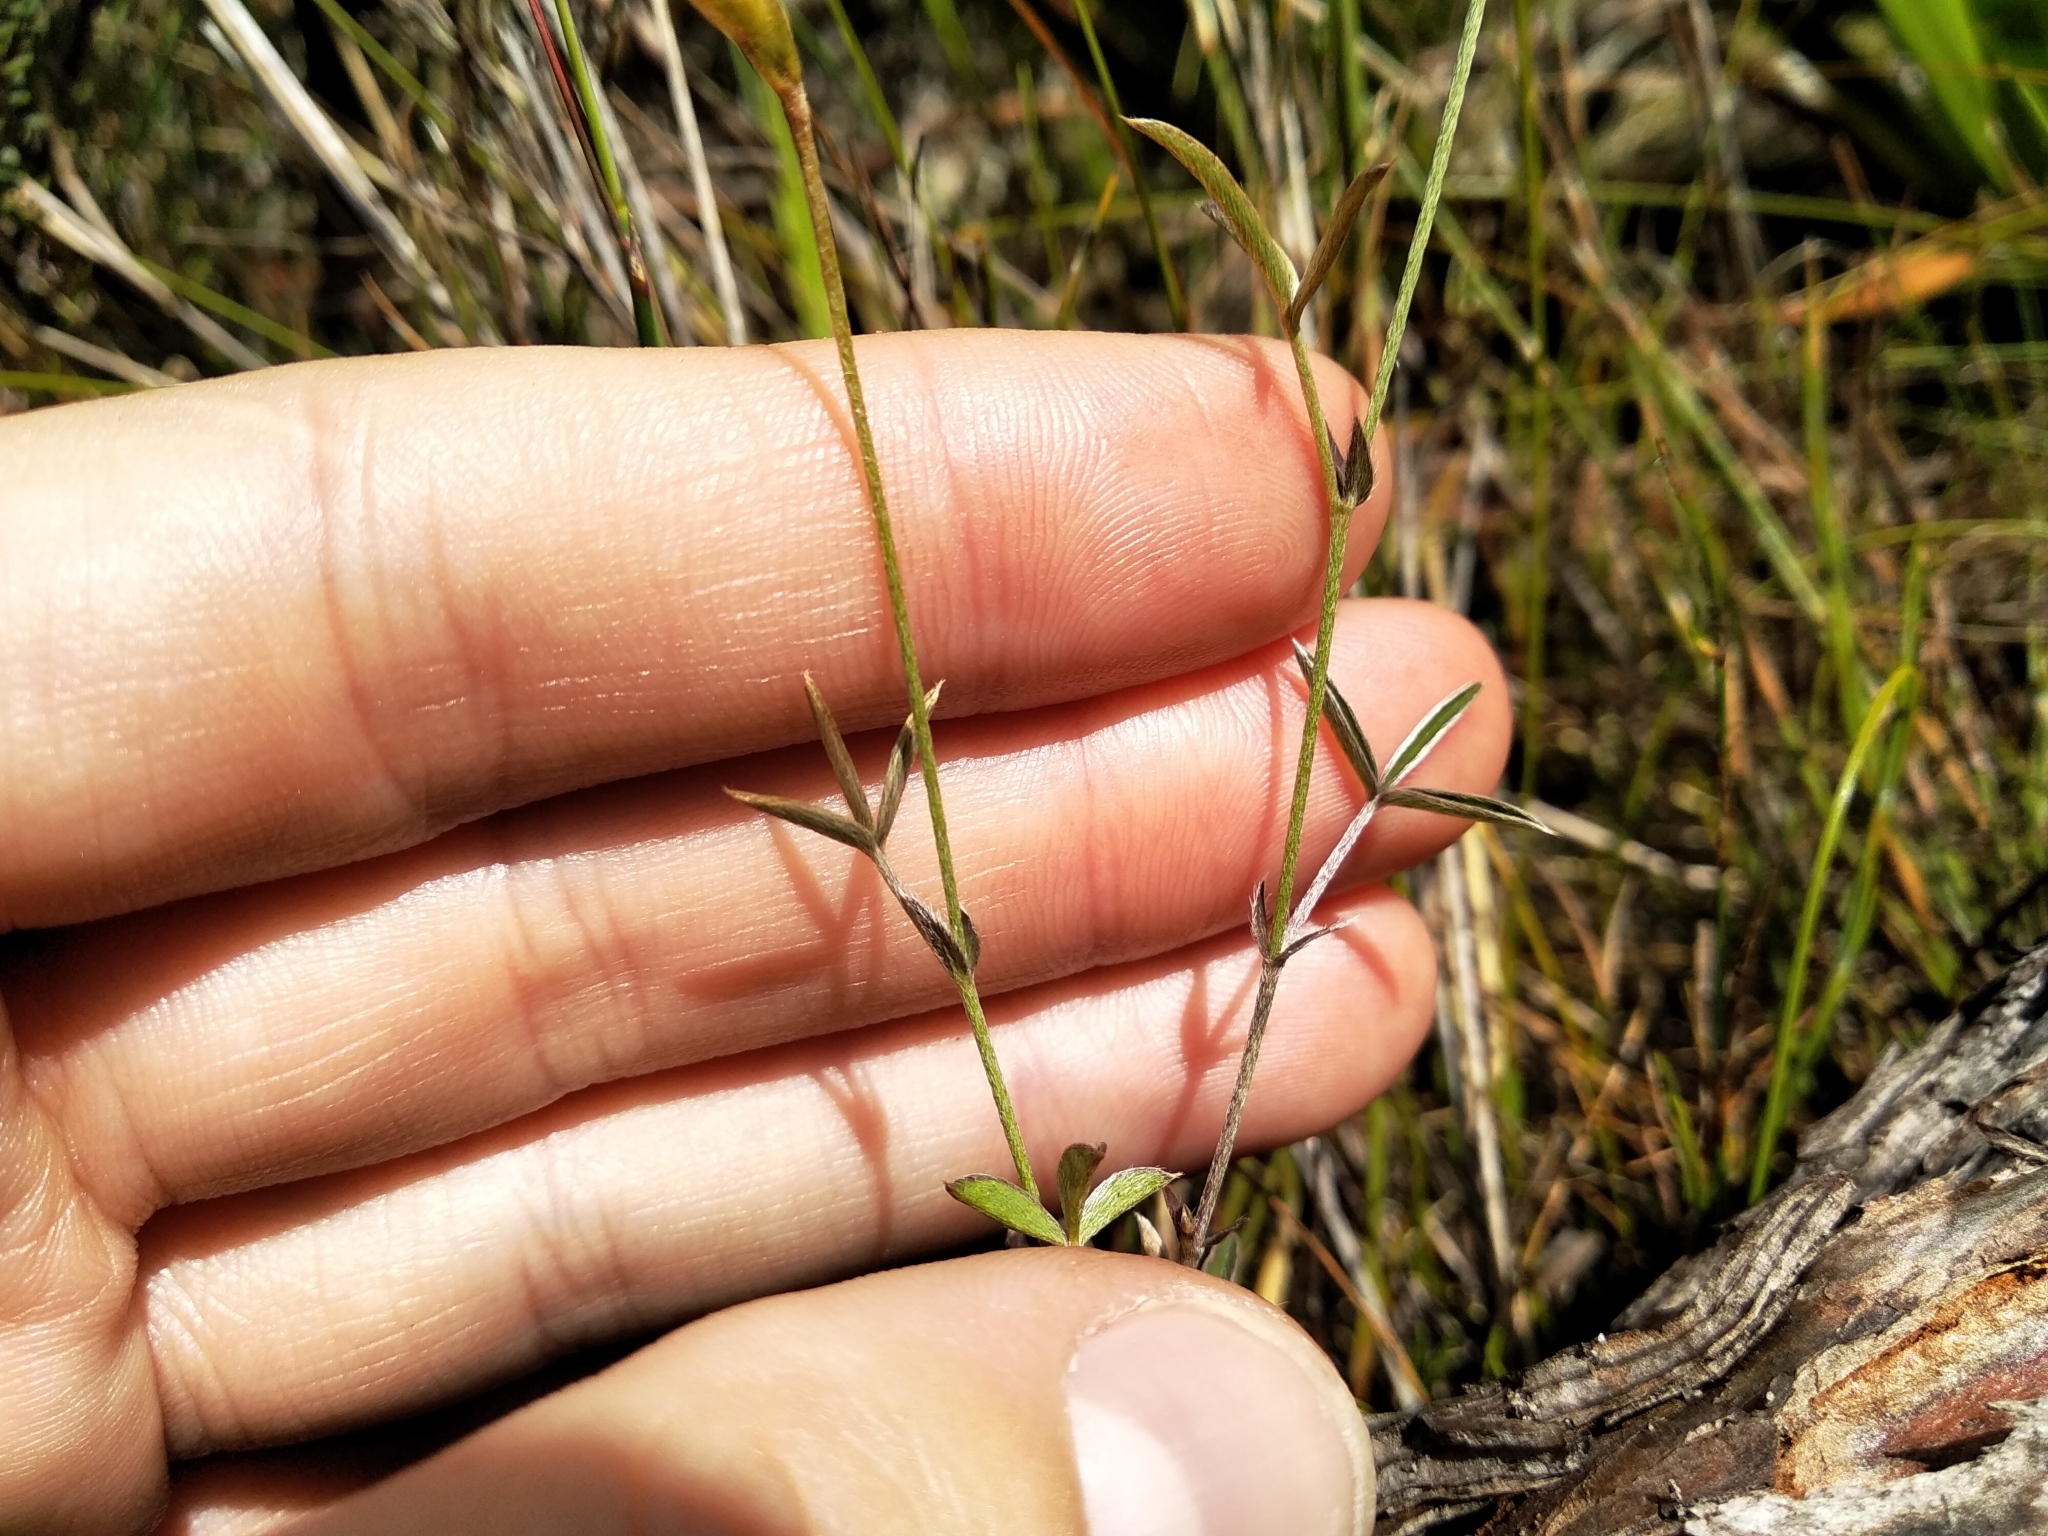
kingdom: Plantae
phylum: Tracheophyta
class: Magnoliopsida
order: Fabales
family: Fabaceae
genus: Argyrolobium
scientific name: Argyrolobium lunare
